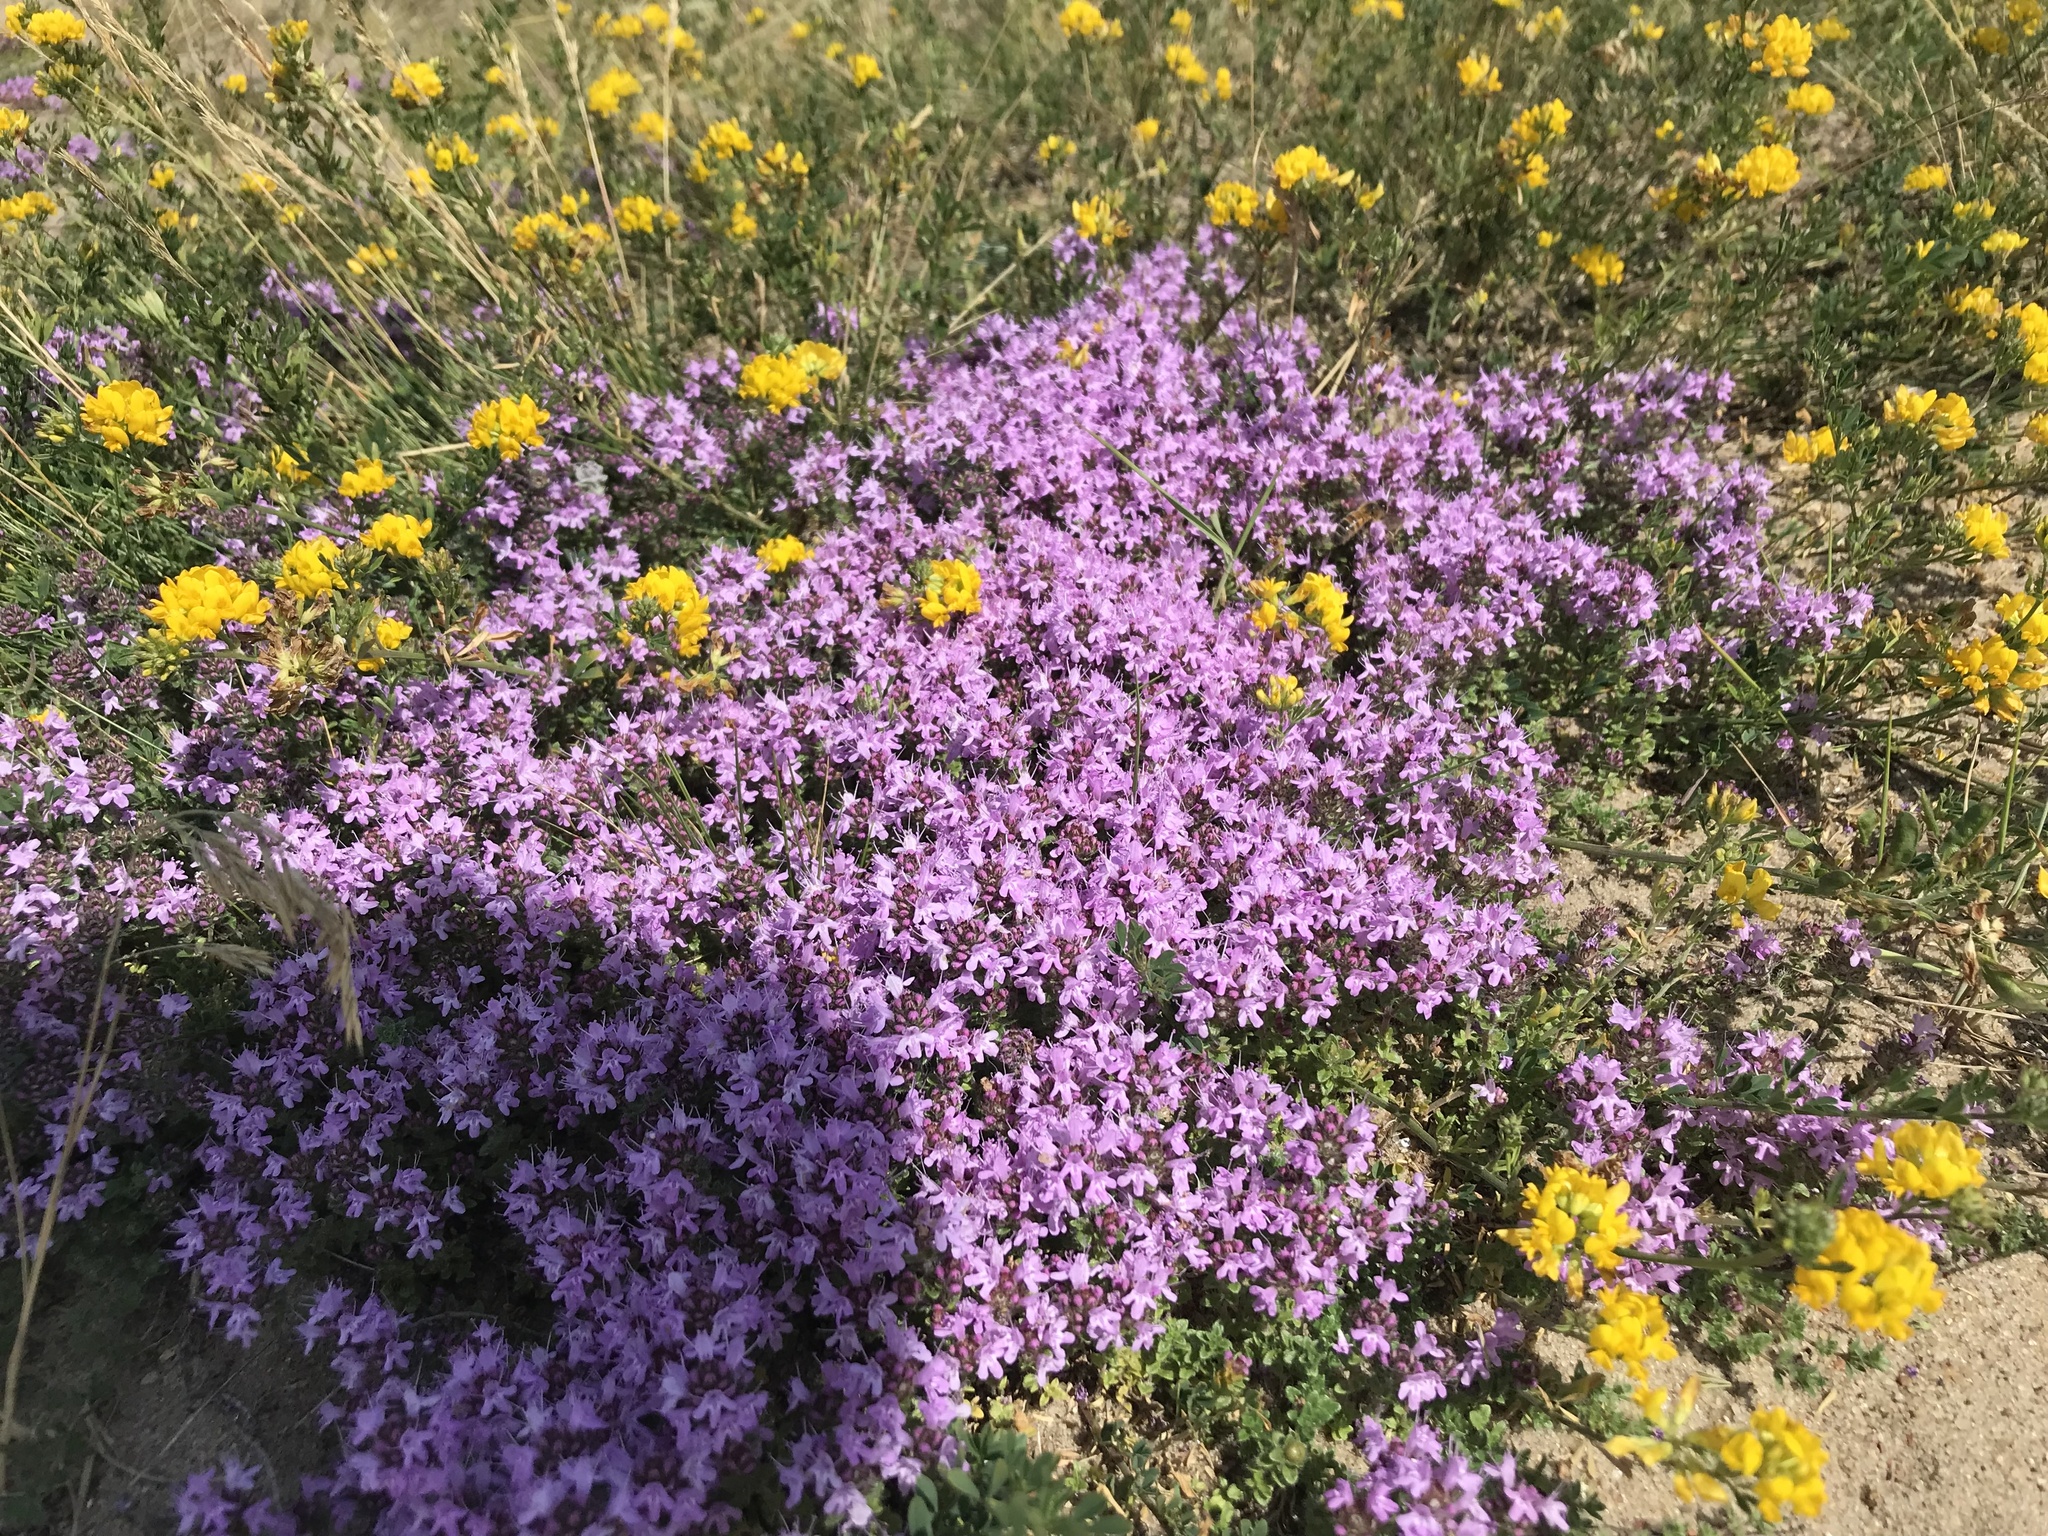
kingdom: Plantae
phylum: Tracheophyta
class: Magnoliopsida
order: Lamiales
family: Lamiaceae
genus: Thymus
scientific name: Thymus serpyllum
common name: Breckland thyme
